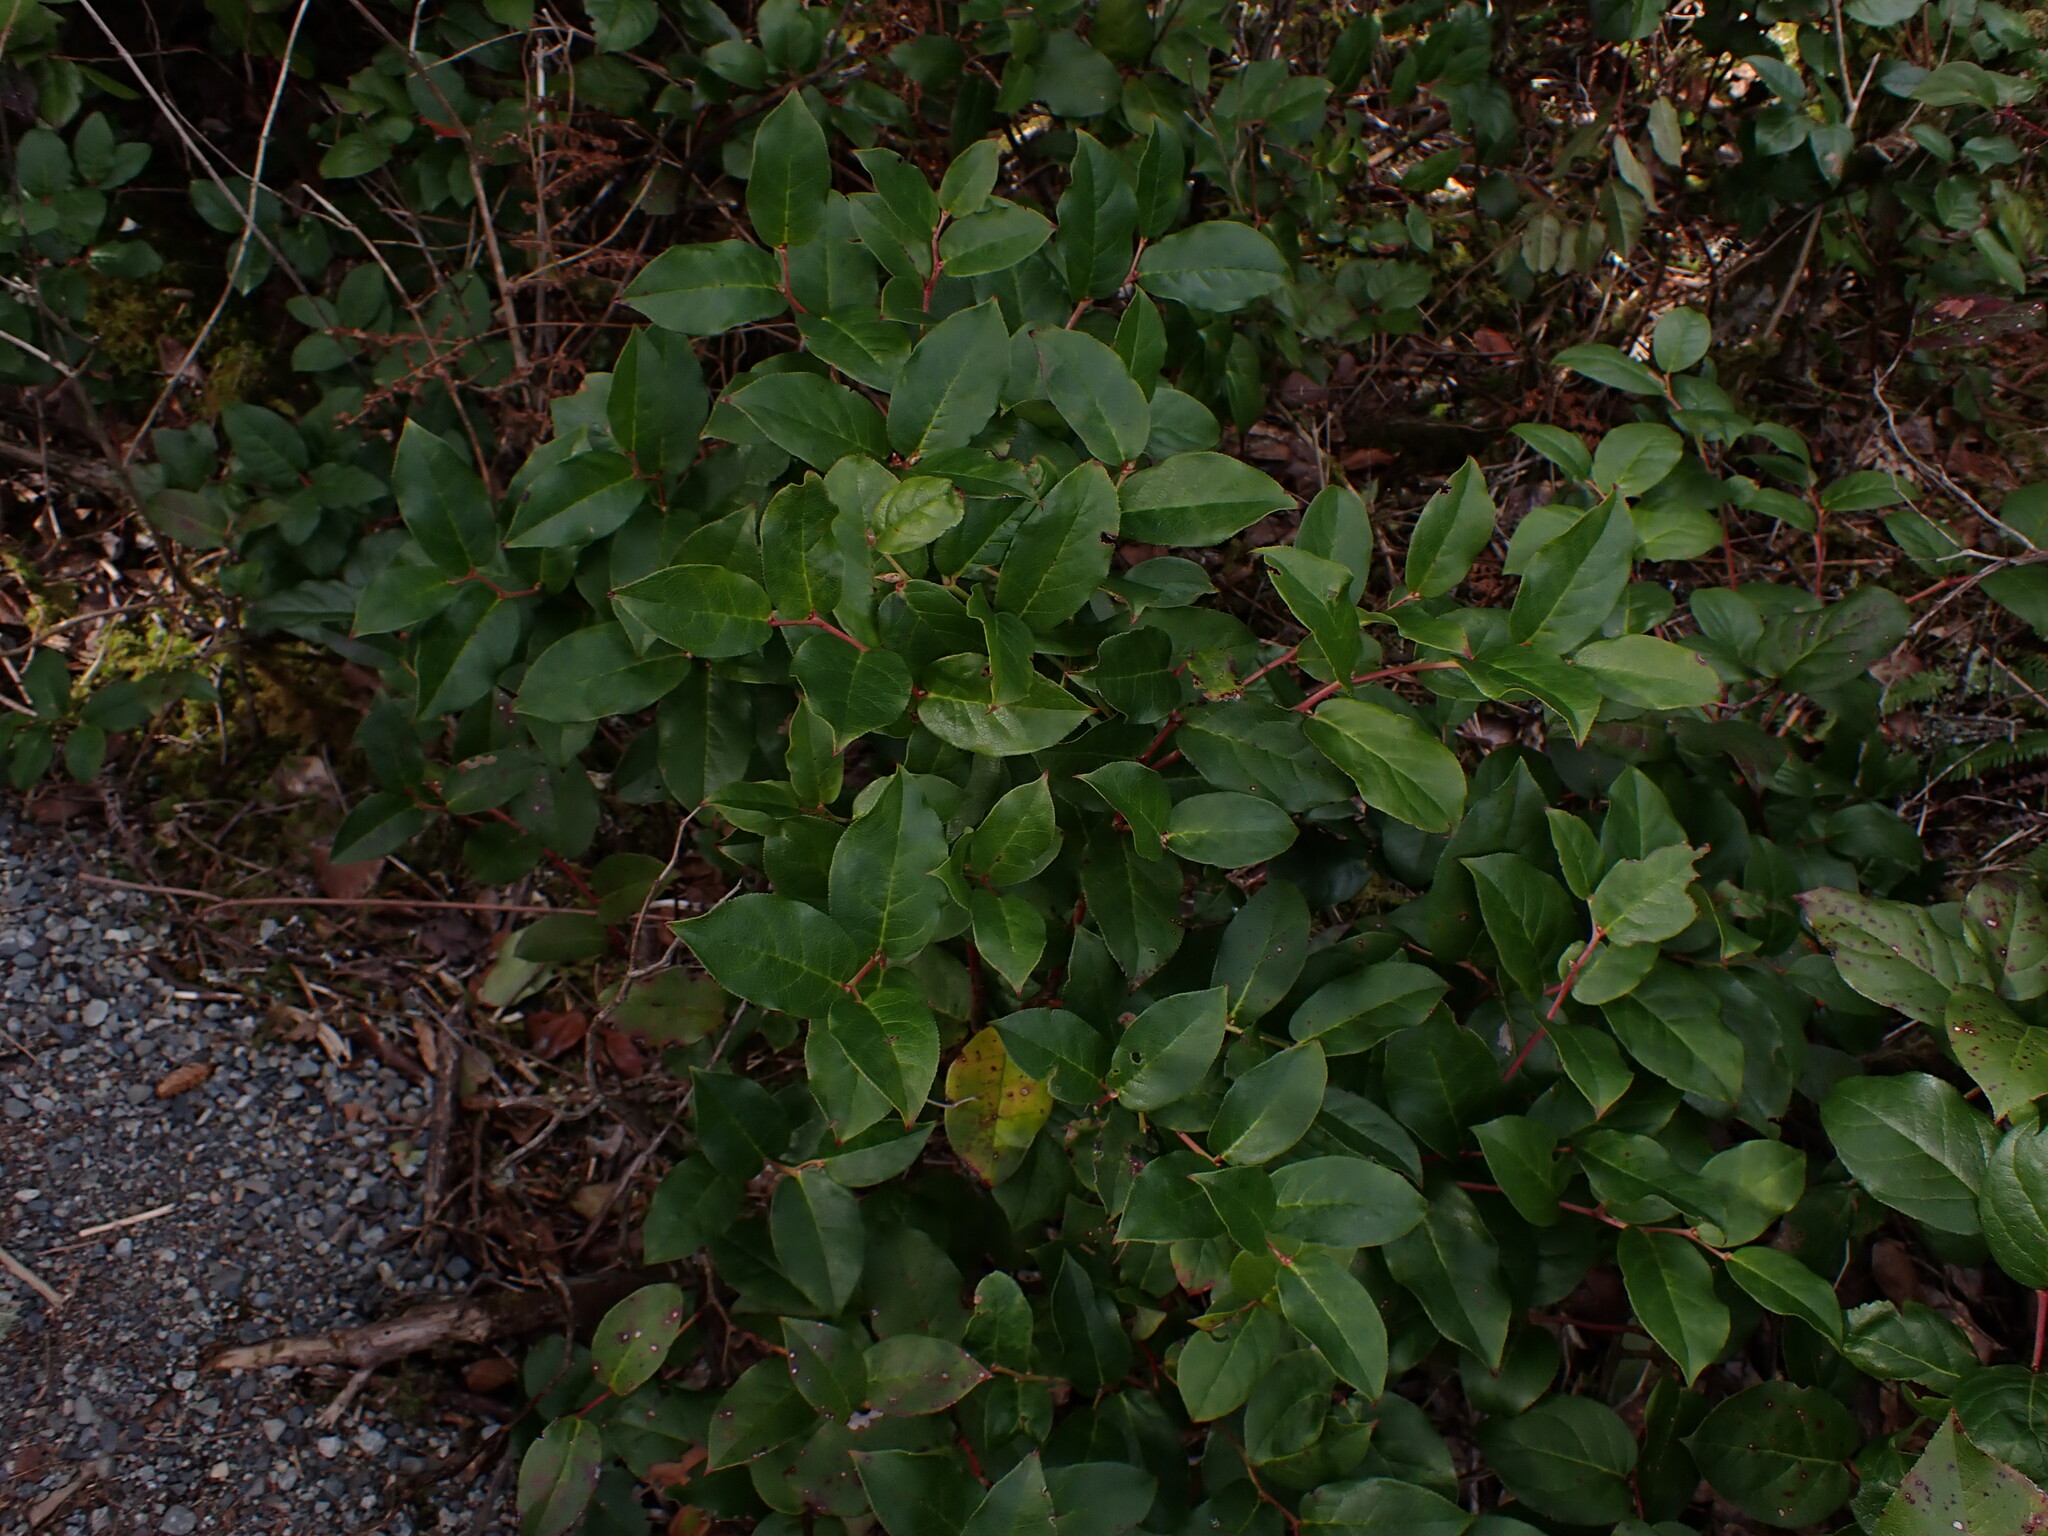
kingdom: Plantae
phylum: Tracheophyta
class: Magnoliopsida
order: Ericales
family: Ericaceae
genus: Gaultheria
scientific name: Gaultheria shallon
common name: Shallon
